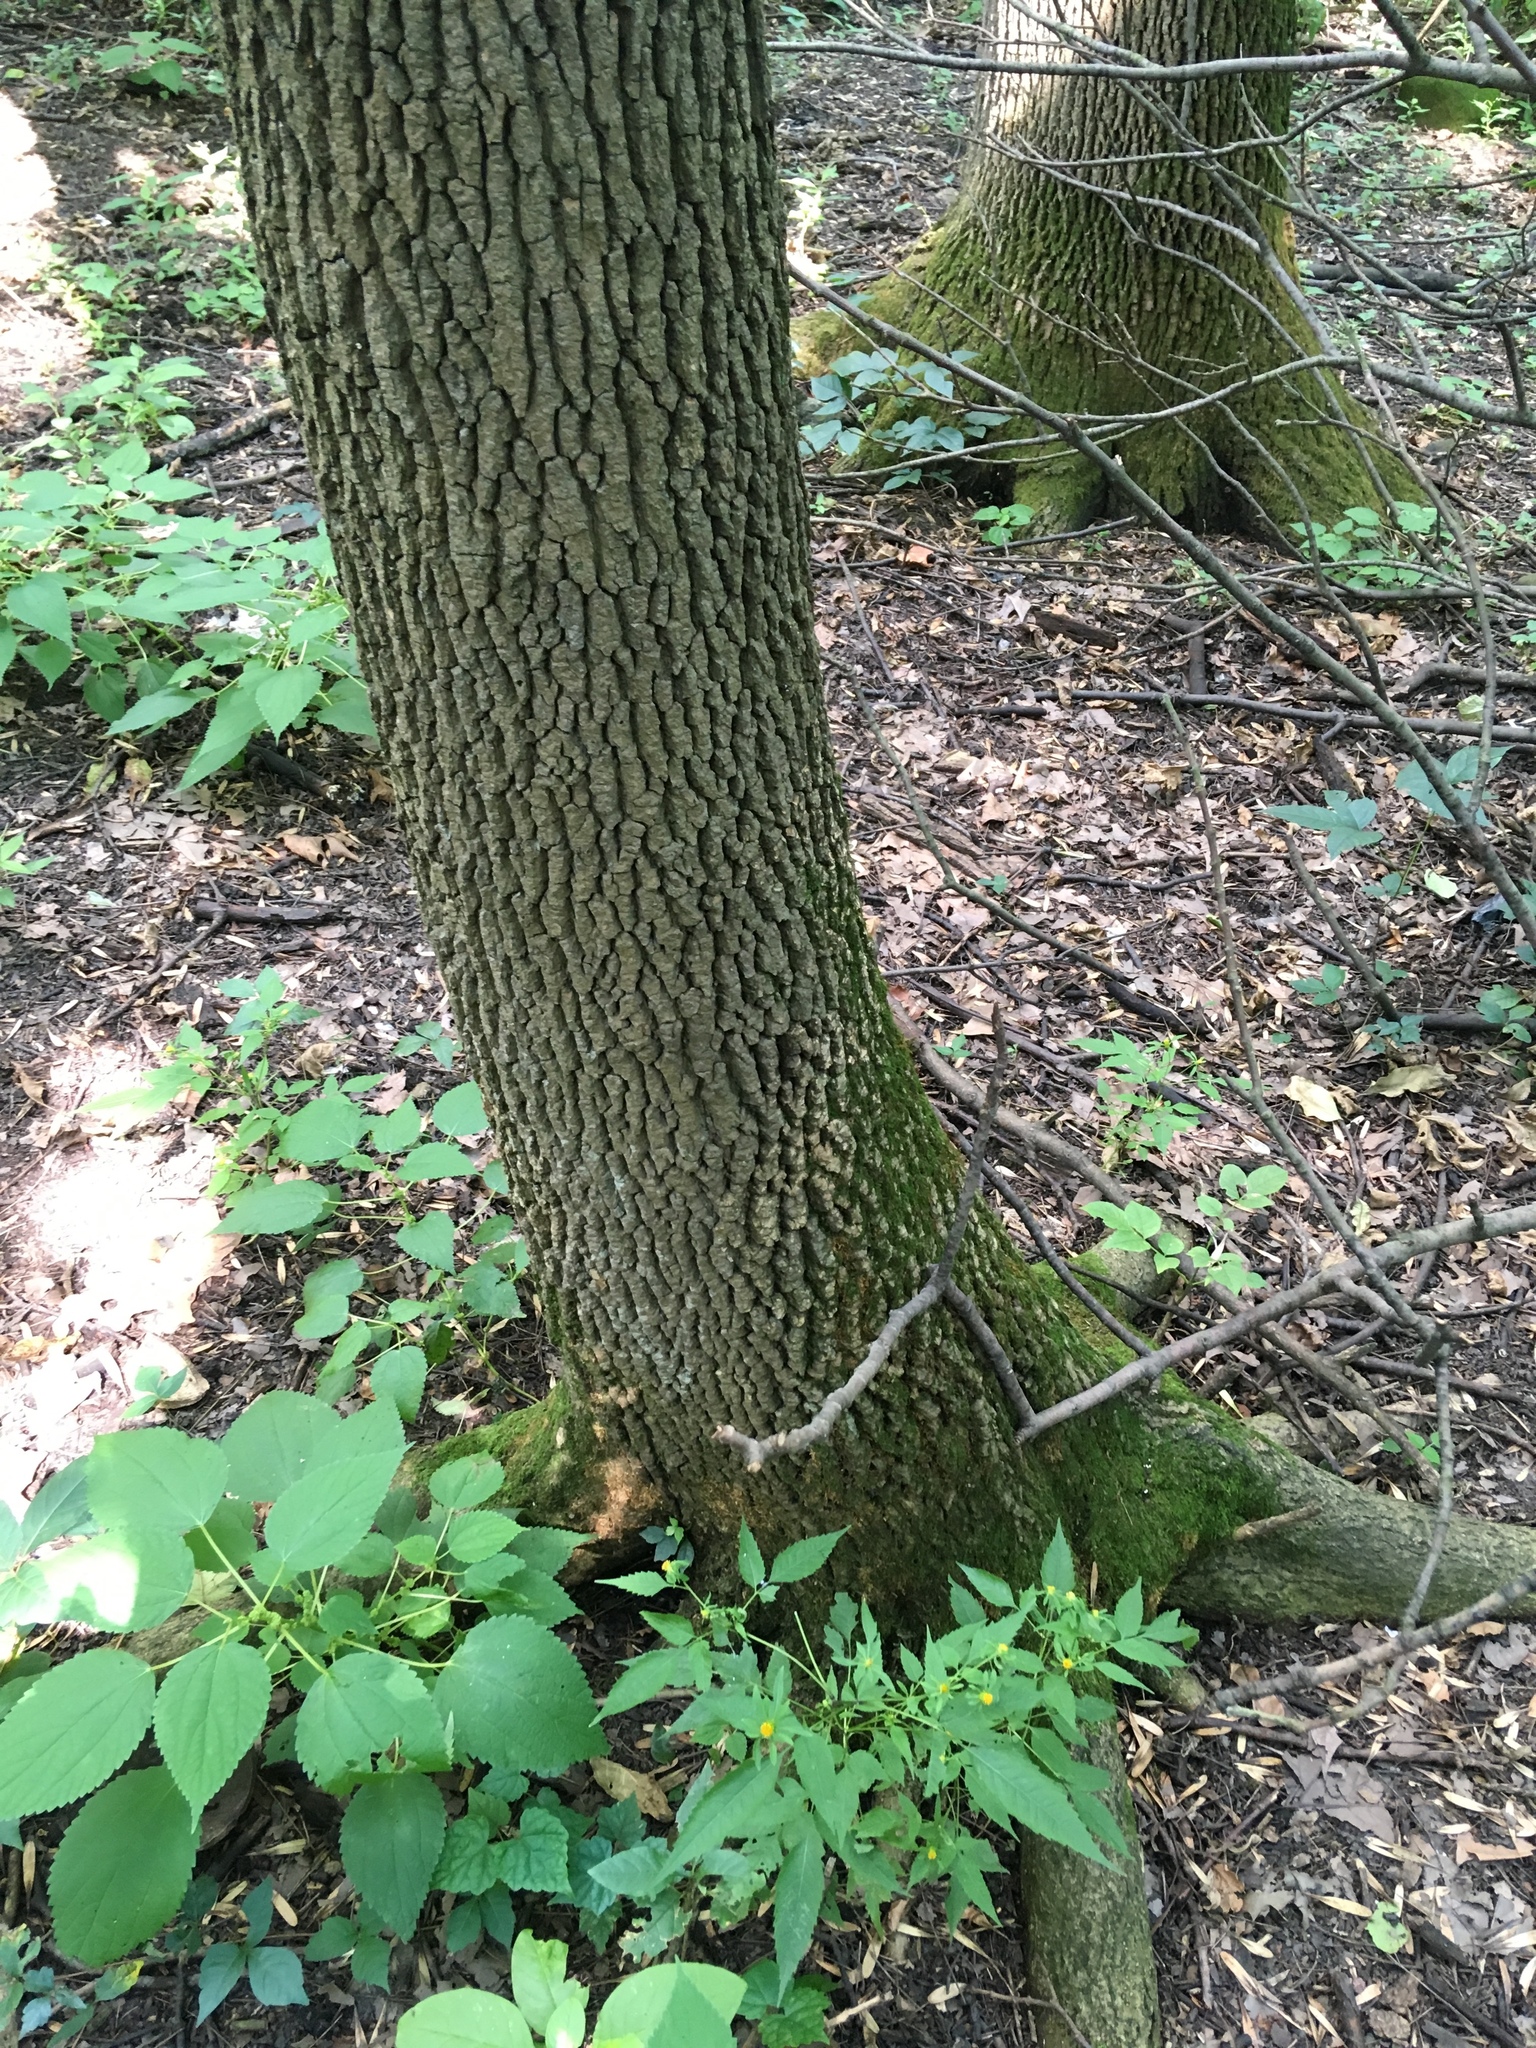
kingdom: Plantae
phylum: Tracheophyta
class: Magnoliopsida
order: Lamiales
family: Oleaceae
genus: Fraxinus
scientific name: Fraxinus pennsylvanica
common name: Green ash
